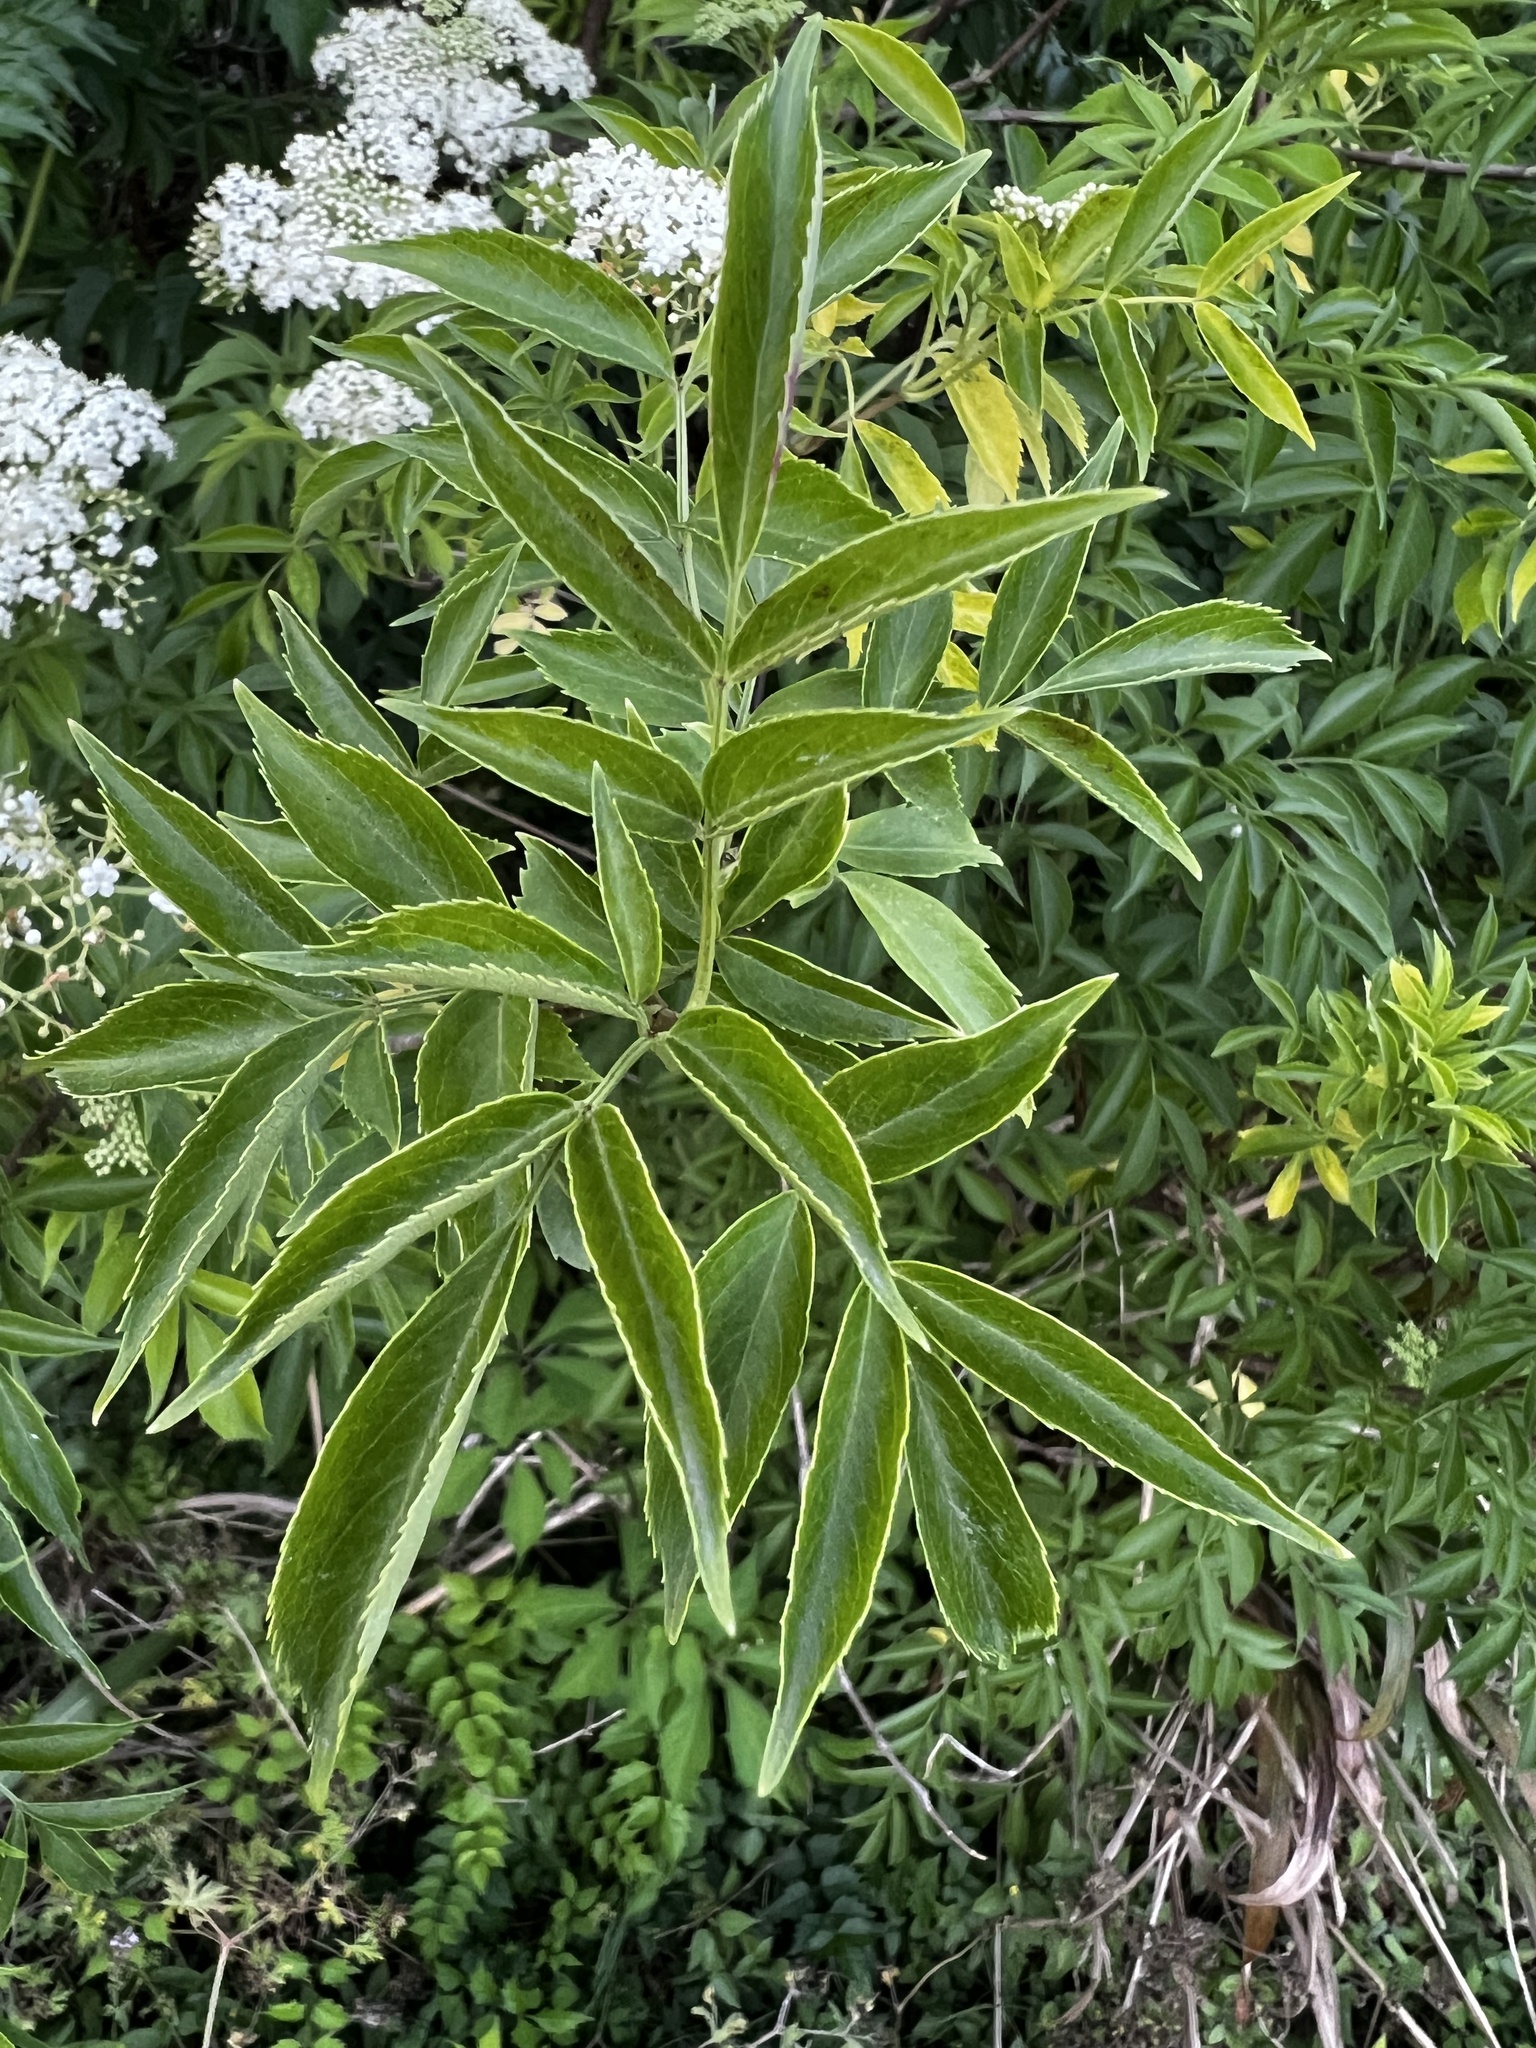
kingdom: Plantae
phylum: Tracheophyta
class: Magnoliopsida
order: Dipsacales
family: Viburnaceae
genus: Sambucus
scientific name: Sambucus canadensis
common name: American elder
